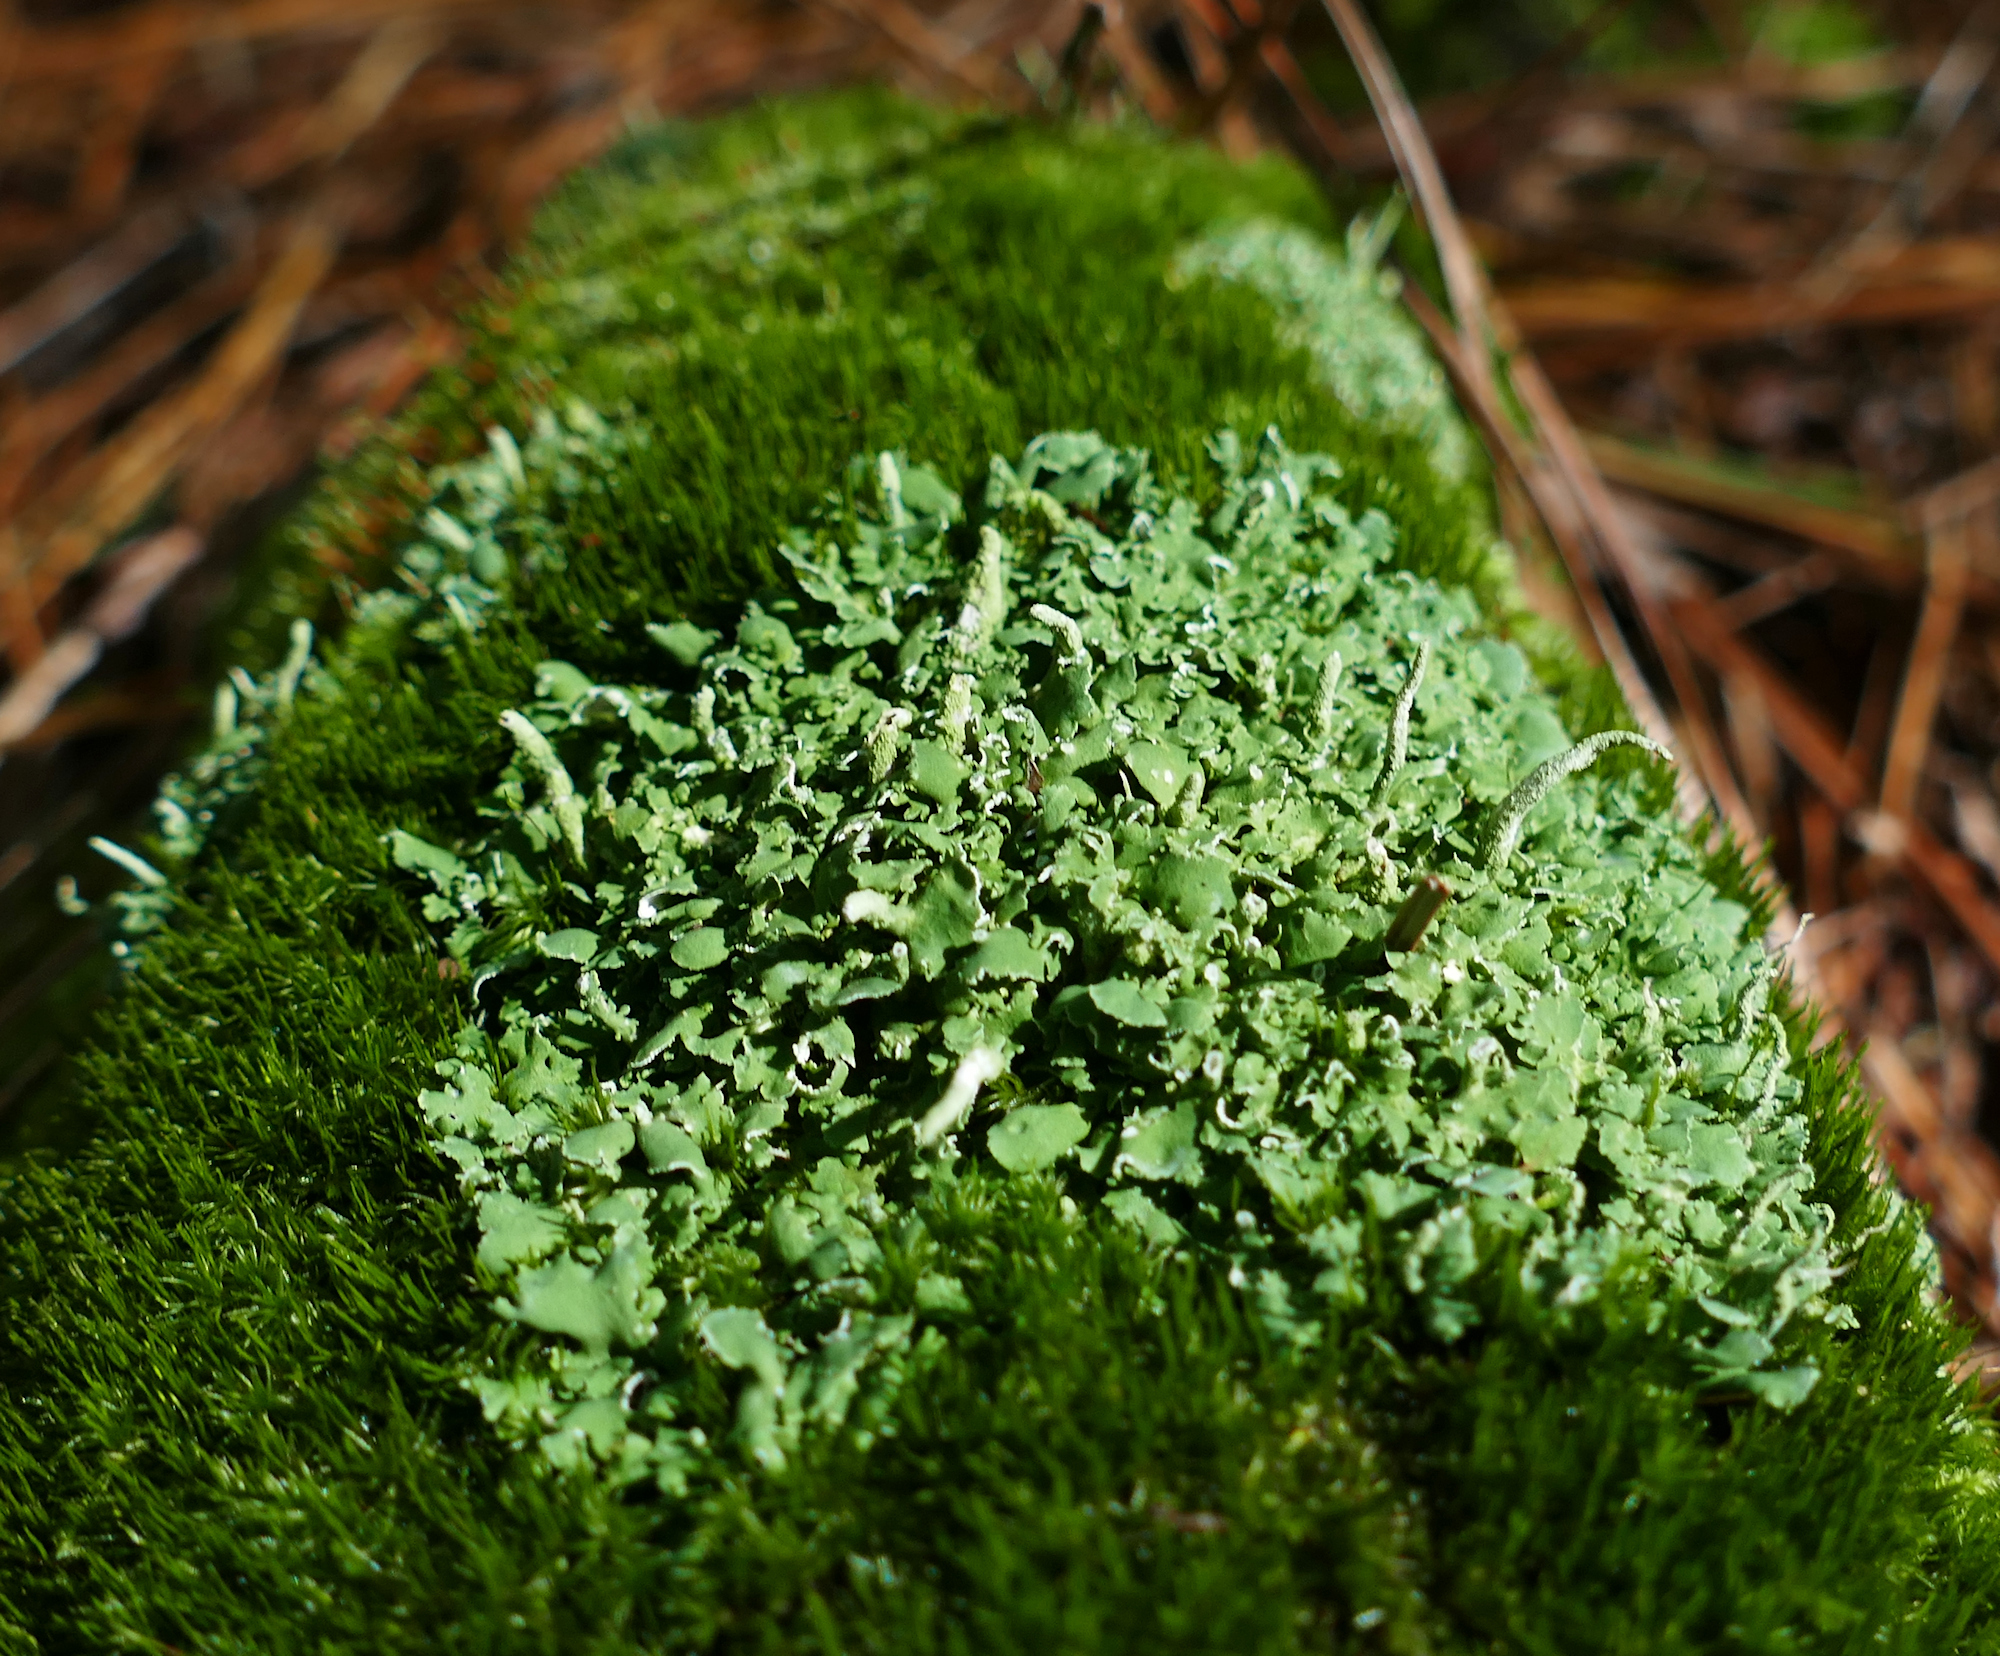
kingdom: Fungi
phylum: Ascomycota
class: Lecanoromycetes
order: Lecanorales
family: Cladoniaceae
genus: Cladonia
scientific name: Cladonia coniocraea
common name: Common powderhorn
